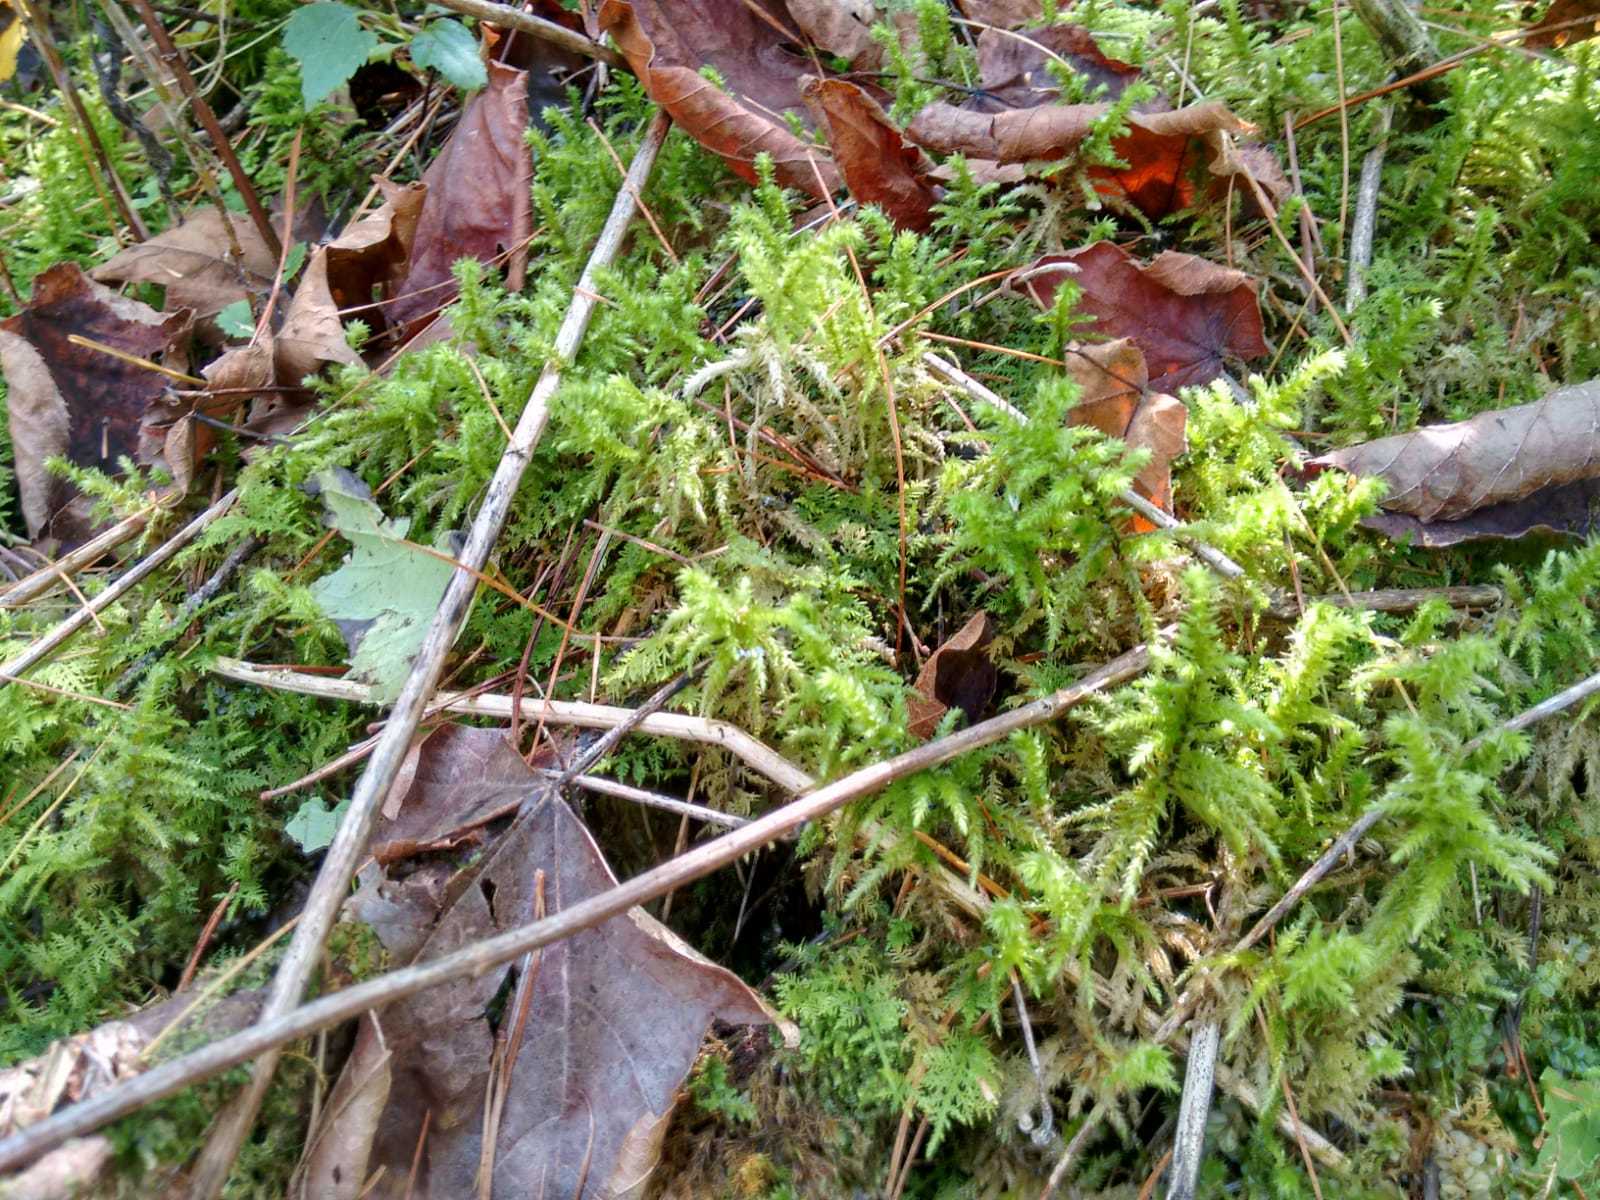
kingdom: Plantae
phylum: Bryophyta
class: Bryopsida
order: Hypnales
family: Hylocomiaceae
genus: Hylocomiadelphus
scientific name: Hylocomiadelphus triquetrus
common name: Rough goose neck moss
